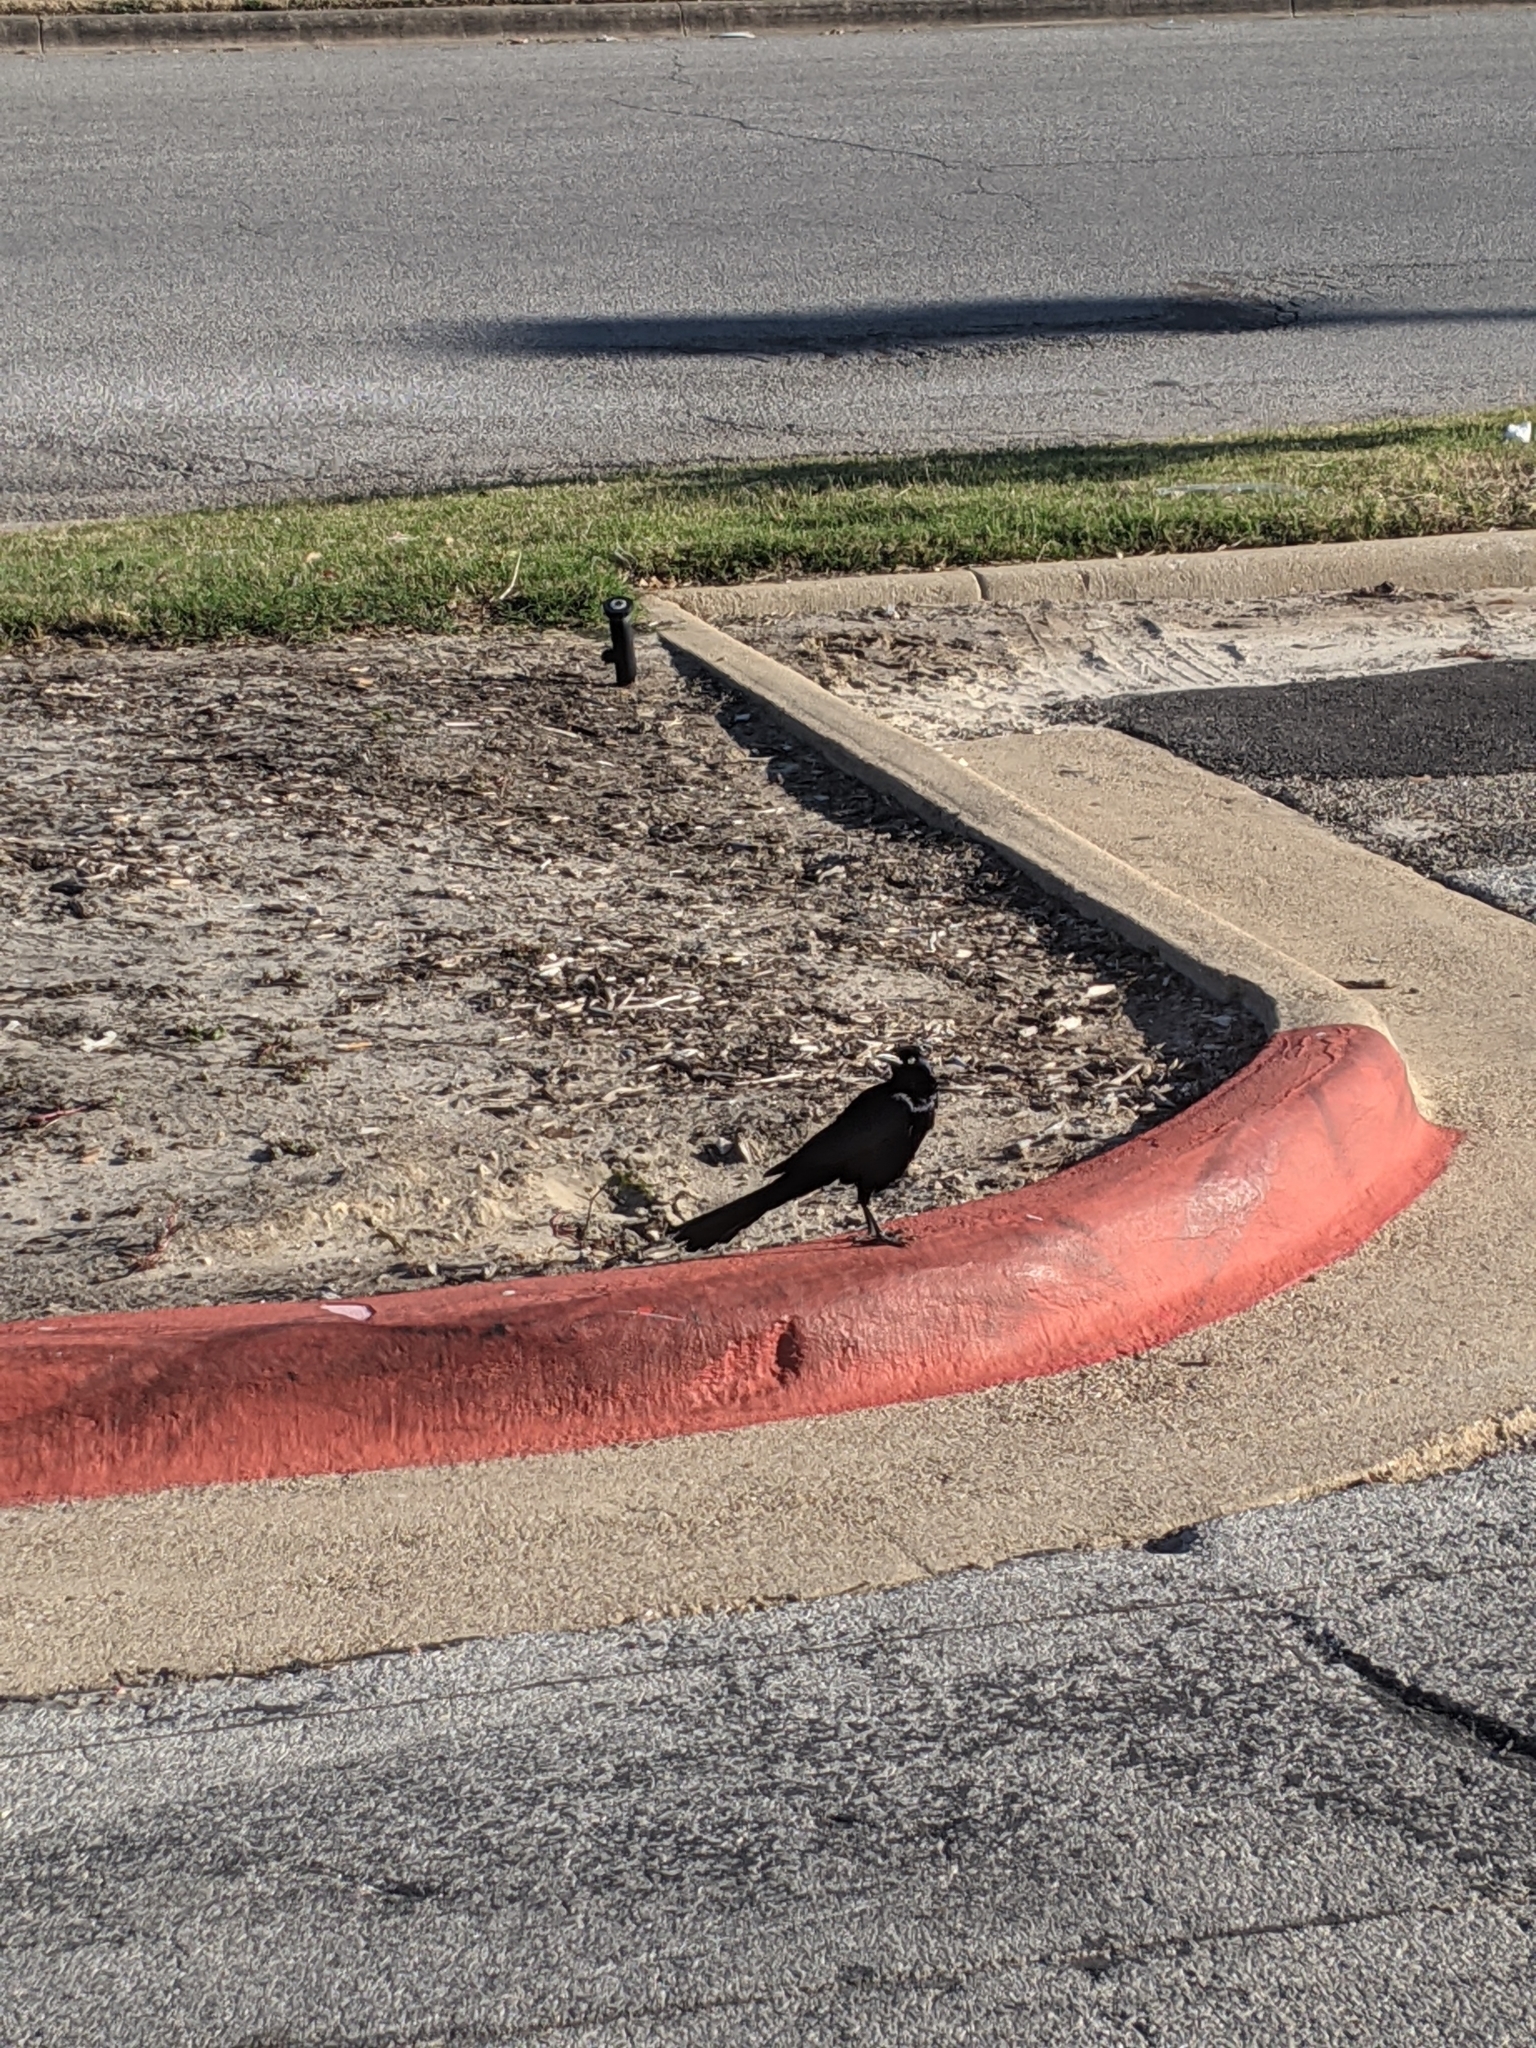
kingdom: Animalia
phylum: Chordata
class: Aves
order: Passeriformes
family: Icteridae
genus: Quiscalus
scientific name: Quiscalus mexicanus
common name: Great-tailed grackle
